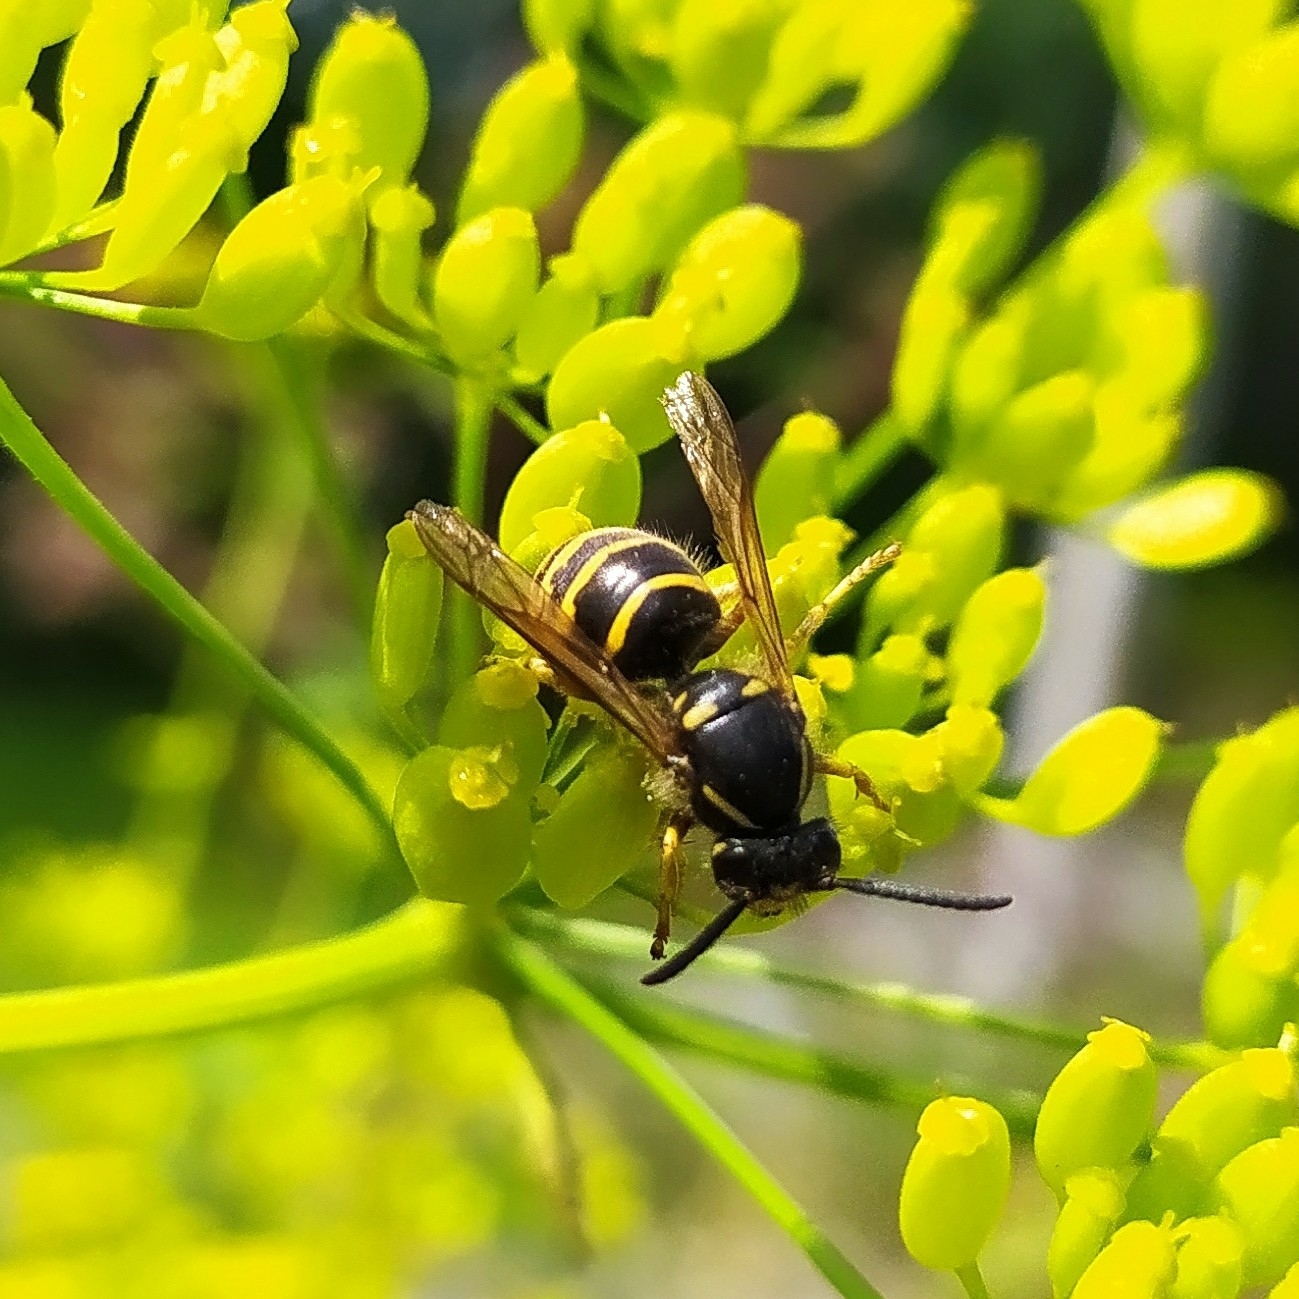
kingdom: Animalia
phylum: Arthropoda
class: Insecta
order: Hymenoptera
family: Vespidae
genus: Dolichovespula
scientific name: Dolichovespula saxonica
